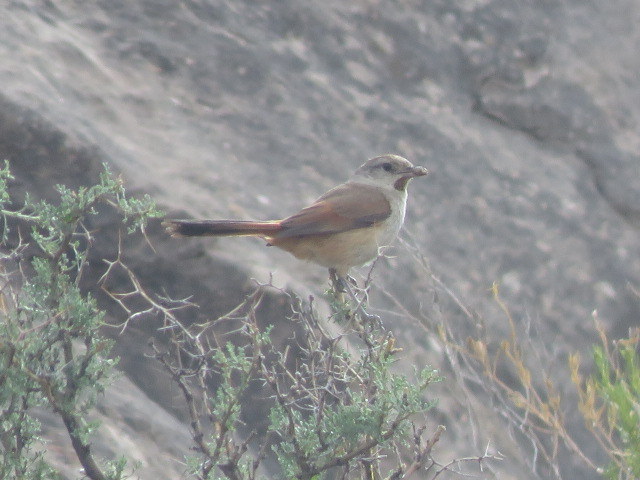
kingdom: Animalia
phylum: Chordata
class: Aves
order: Passeriformes
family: Furnariidae
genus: Asthenes
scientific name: Asthenes dorbignyi
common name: Rusty-vented canastero
